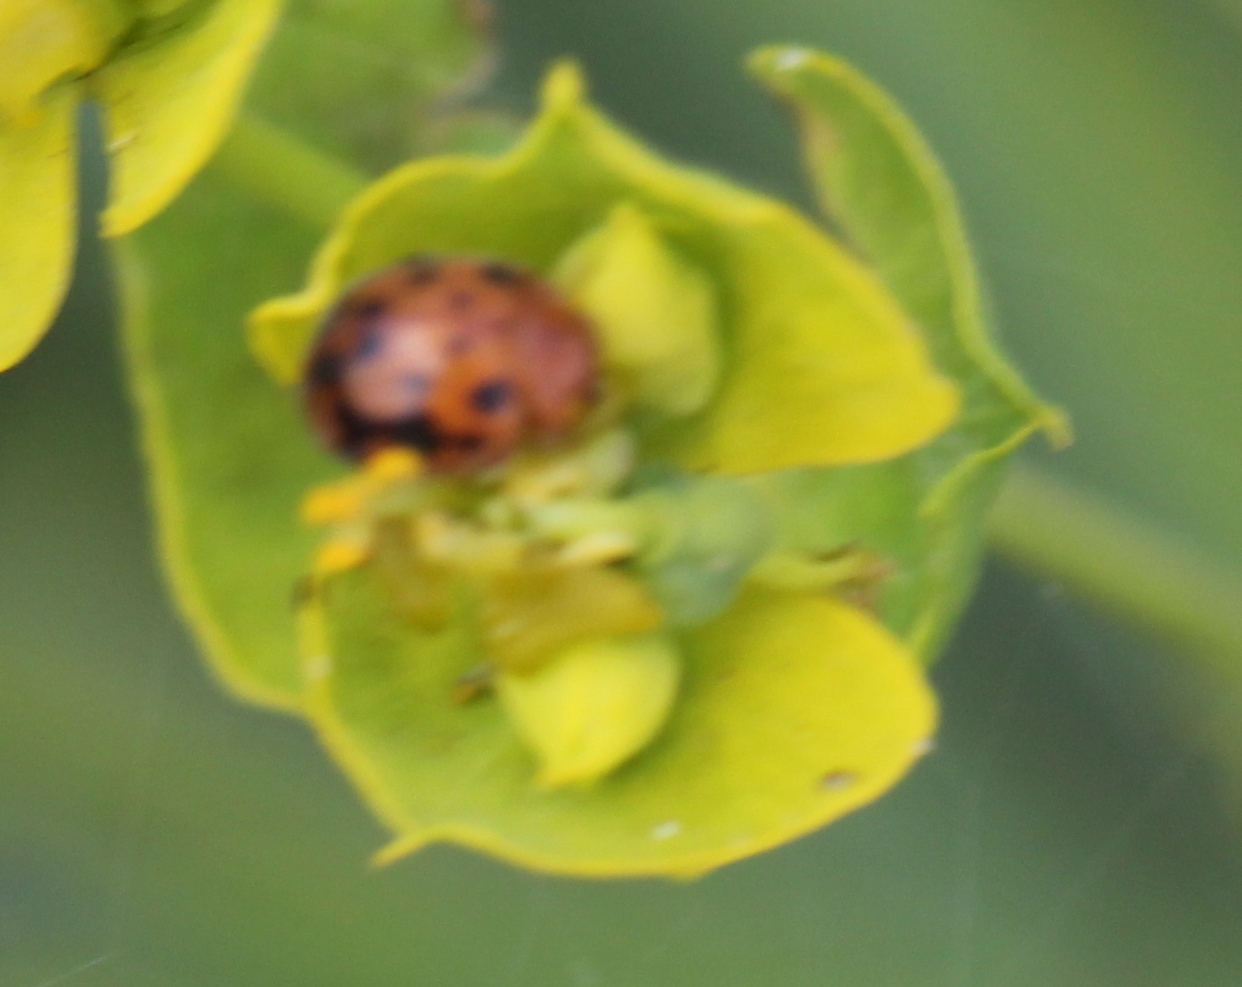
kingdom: Animalia
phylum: Arthropoda
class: Insecta
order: Coleoptera
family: Coccinellidae
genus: Subcoccinella
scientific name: Subcoccinella vigintiquatuorpunctata
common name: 24-spot ladybird
